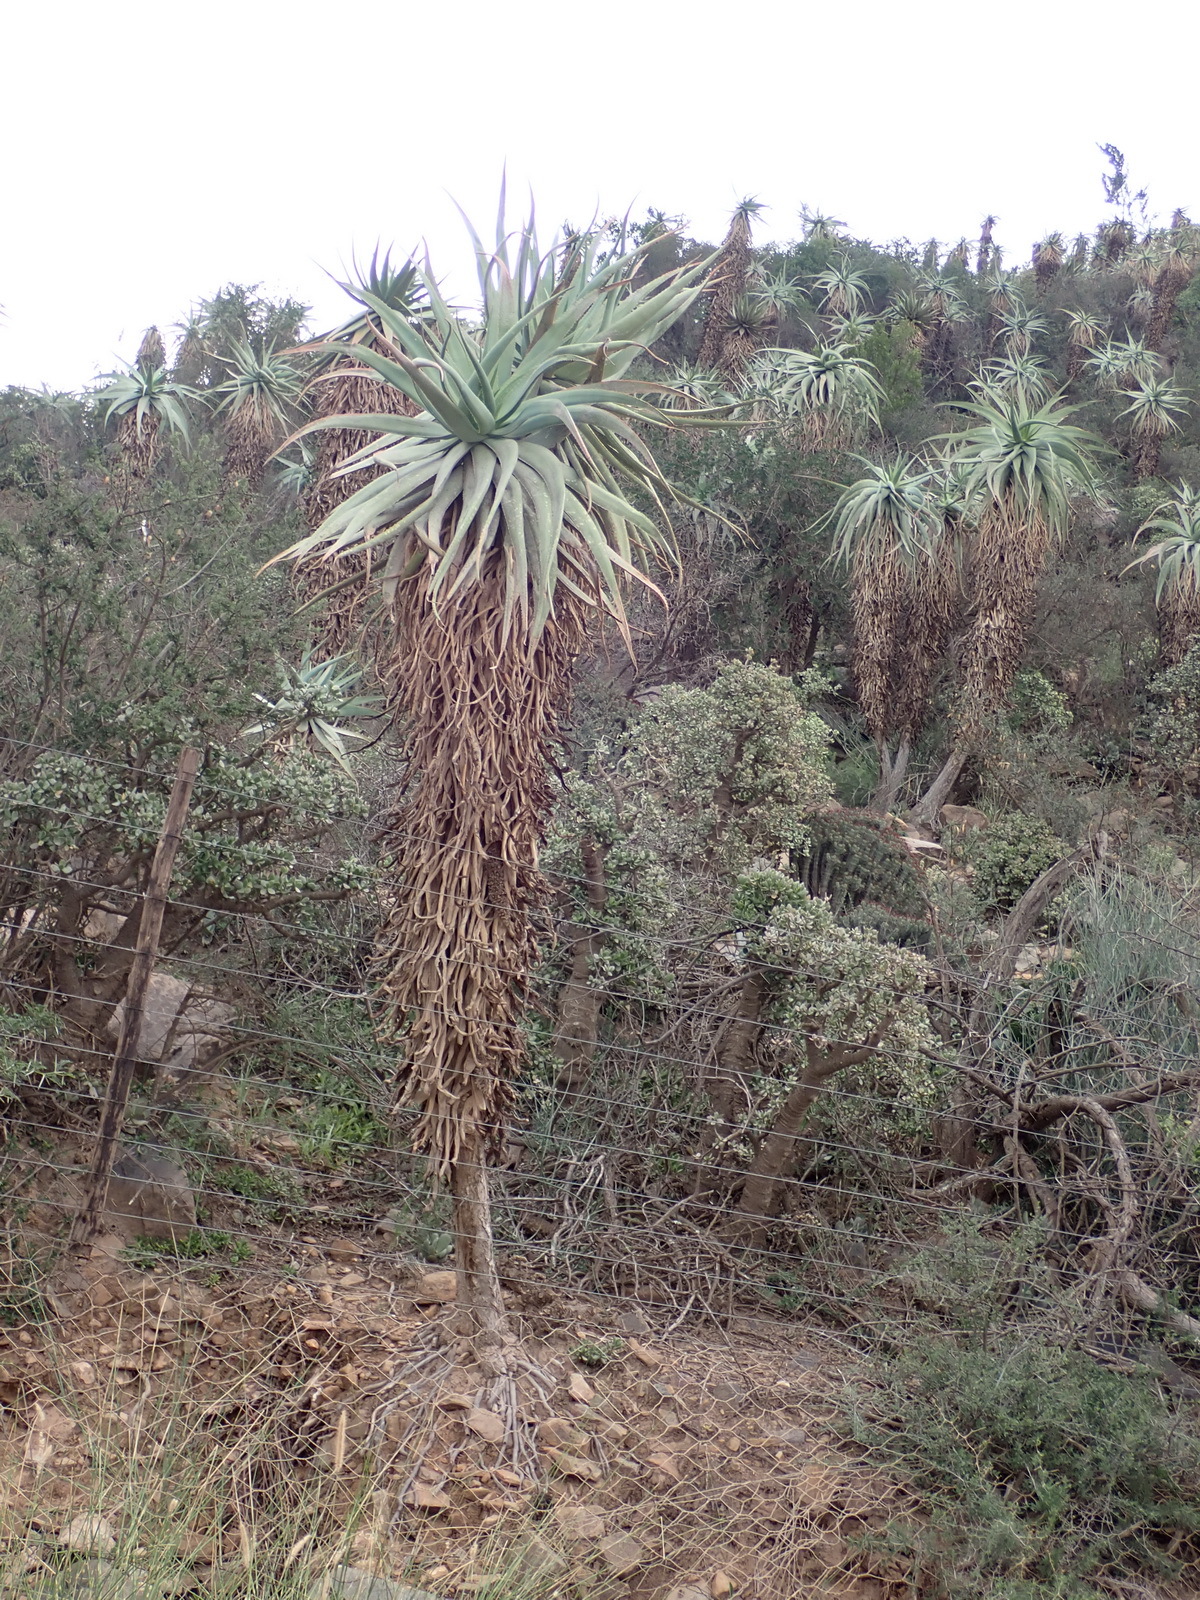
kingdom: Plantae
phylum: Tracheophyta
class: Liliopsida
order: Asparagales
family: Asphodelaceae
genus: Aloe
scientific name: Aloe speciosa
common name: Beautiful aloe
